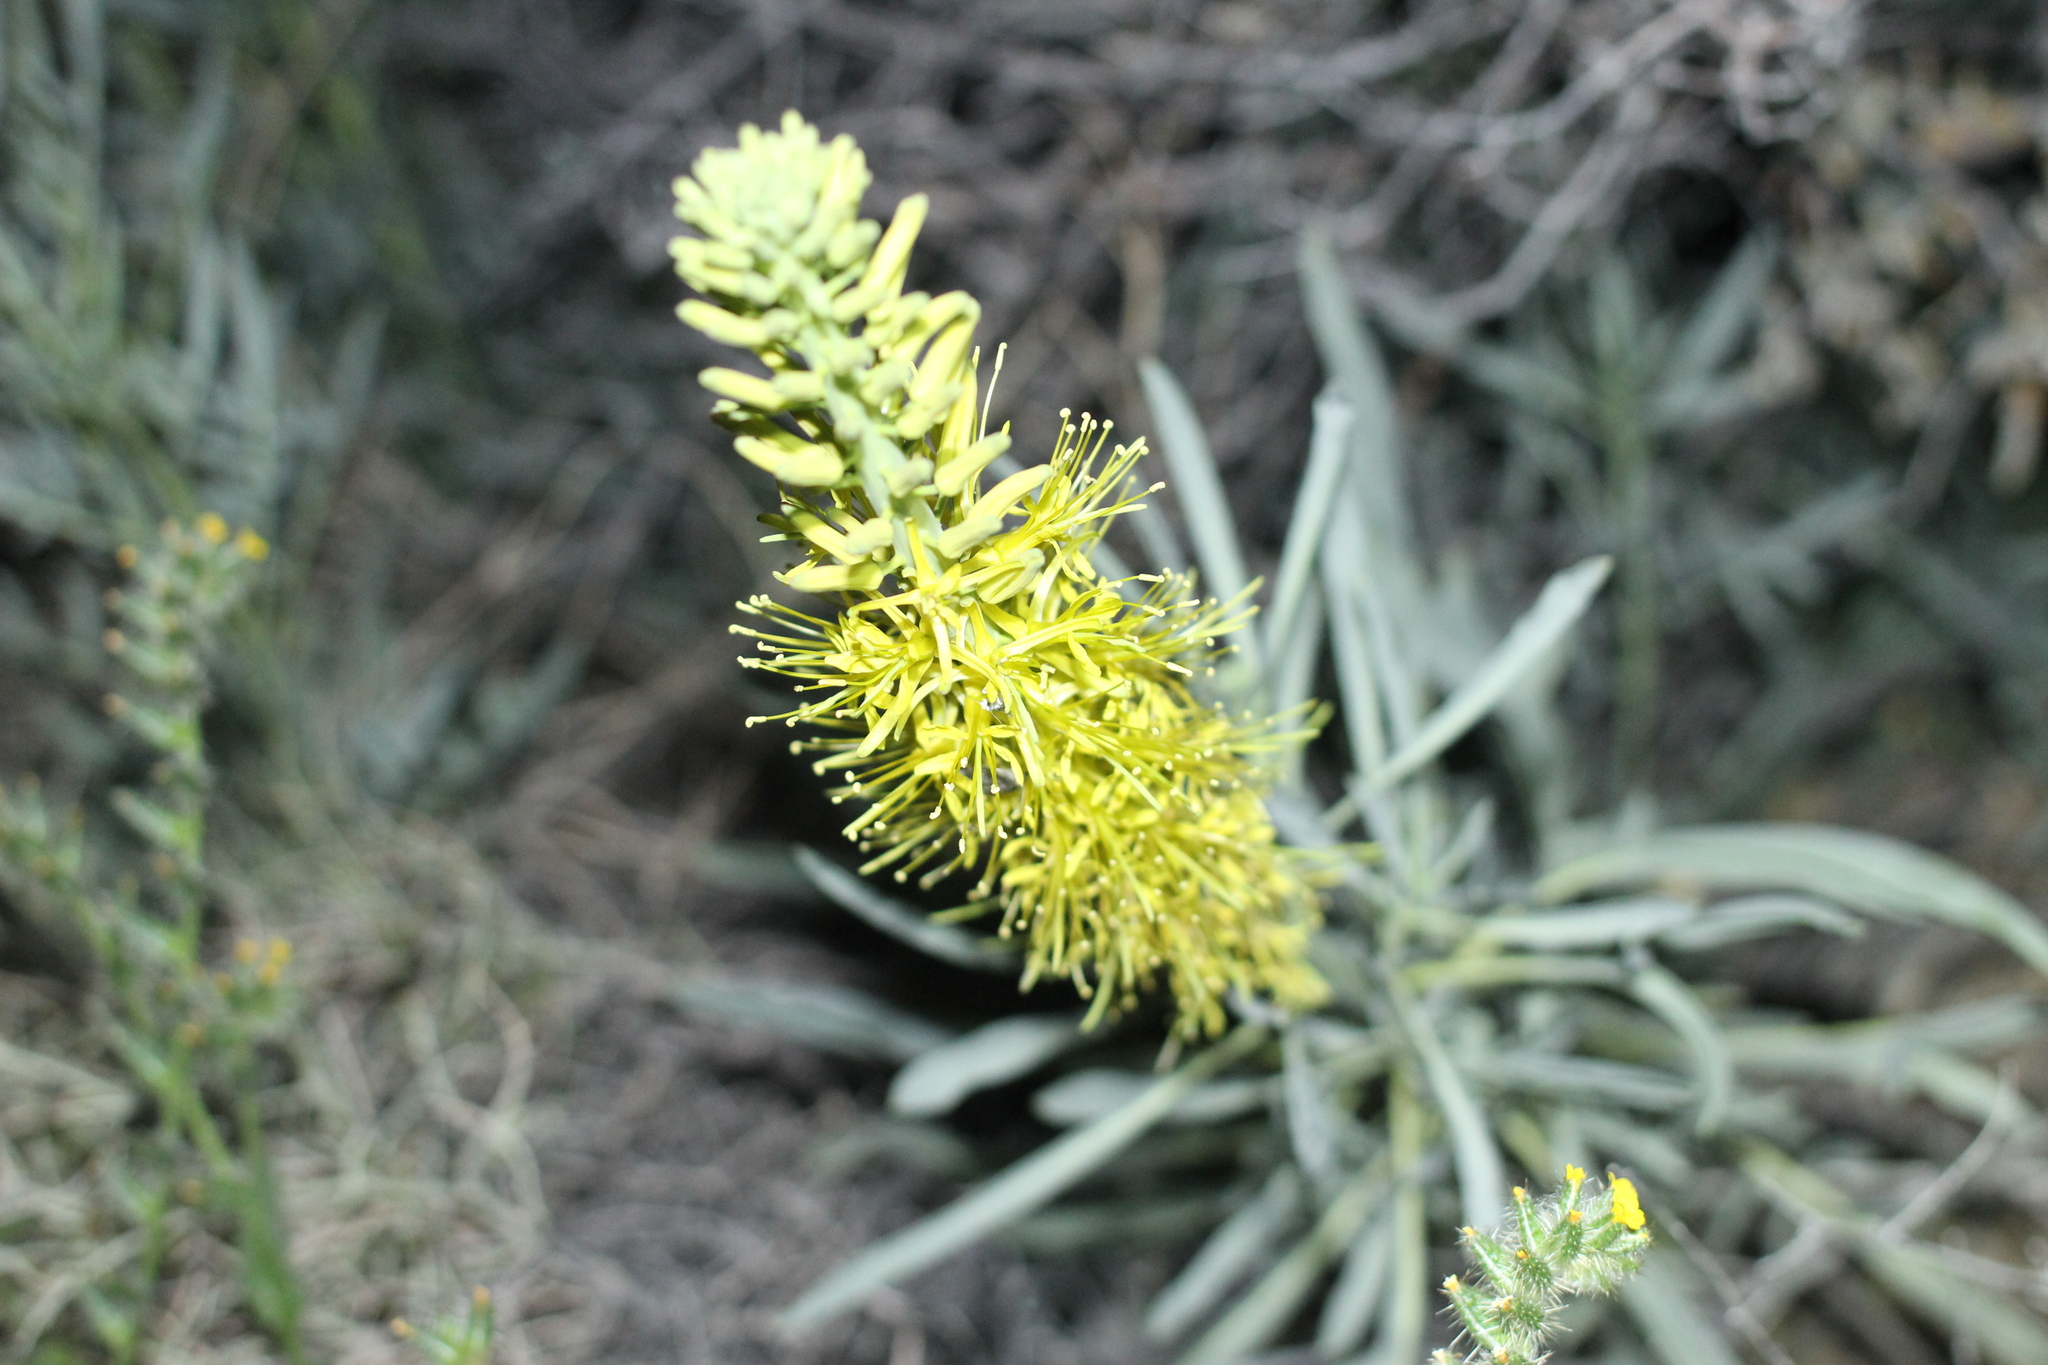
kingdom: Plantae
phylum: Tracheophyta
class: Magnoliopsida
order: Brassicales
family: Brassicaceae
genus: Stanleya
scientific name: Stanleya pinnata
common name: Prince's-plume
